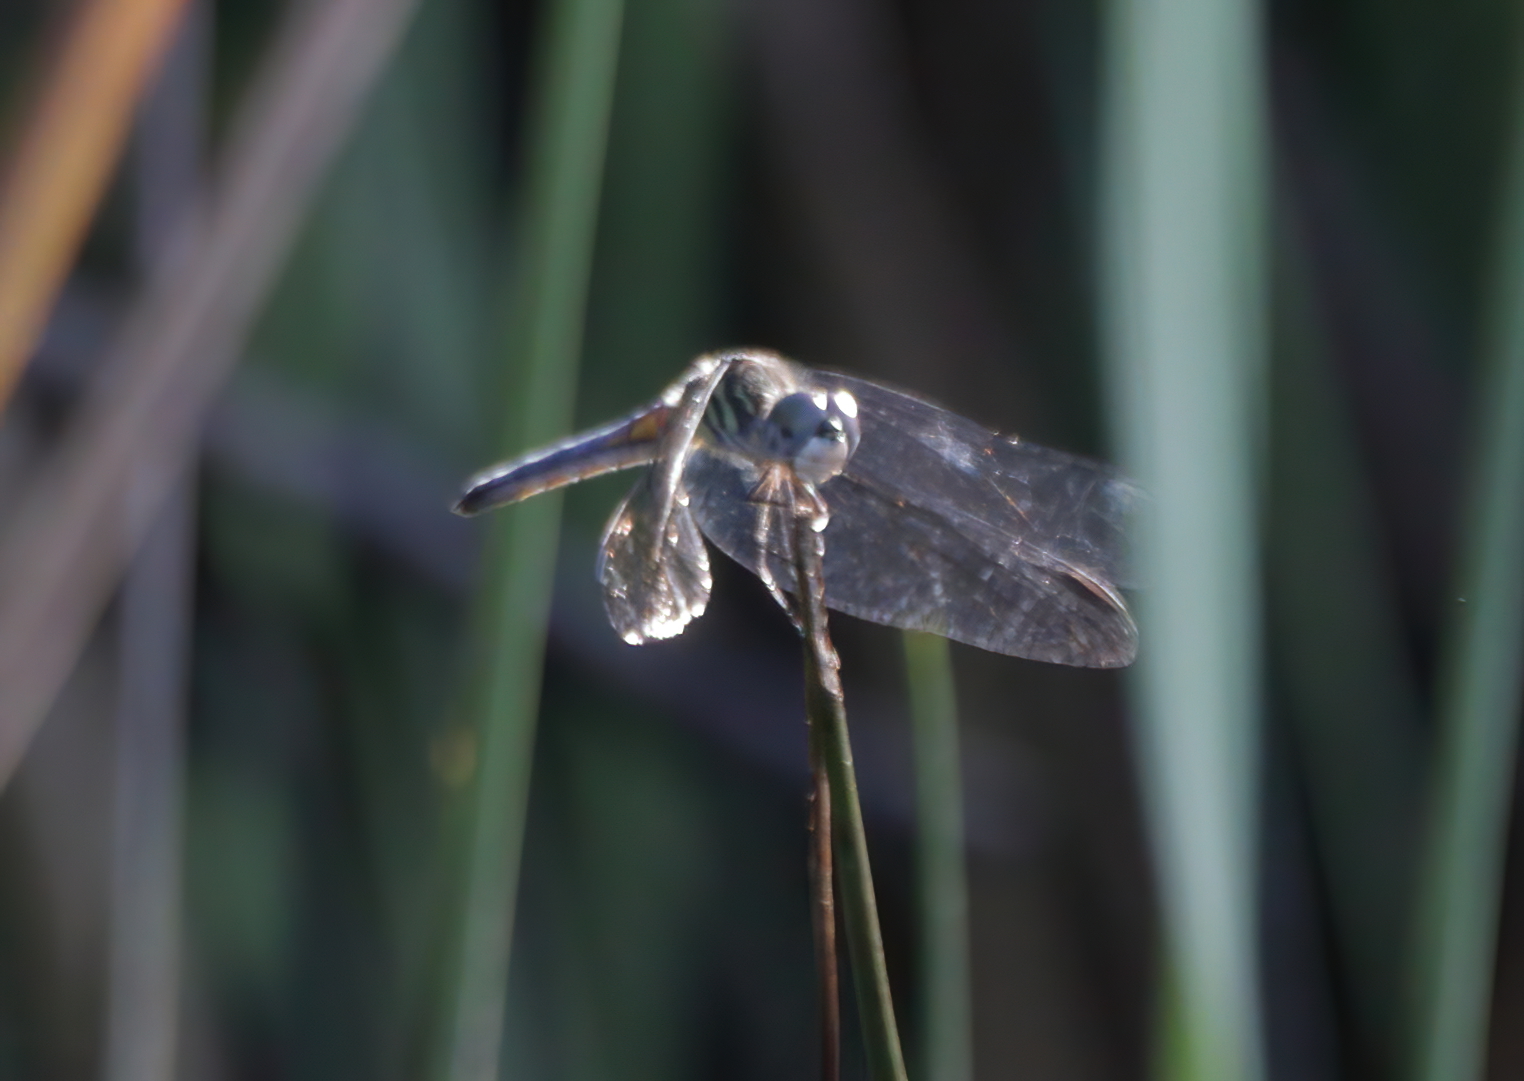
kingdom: Animalia
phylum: Arthropoda
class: Insecta
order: Odonata
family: Libellulidae
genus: Pachydiplax
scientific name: Pachydiplax longipennis
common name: Blue dasher
